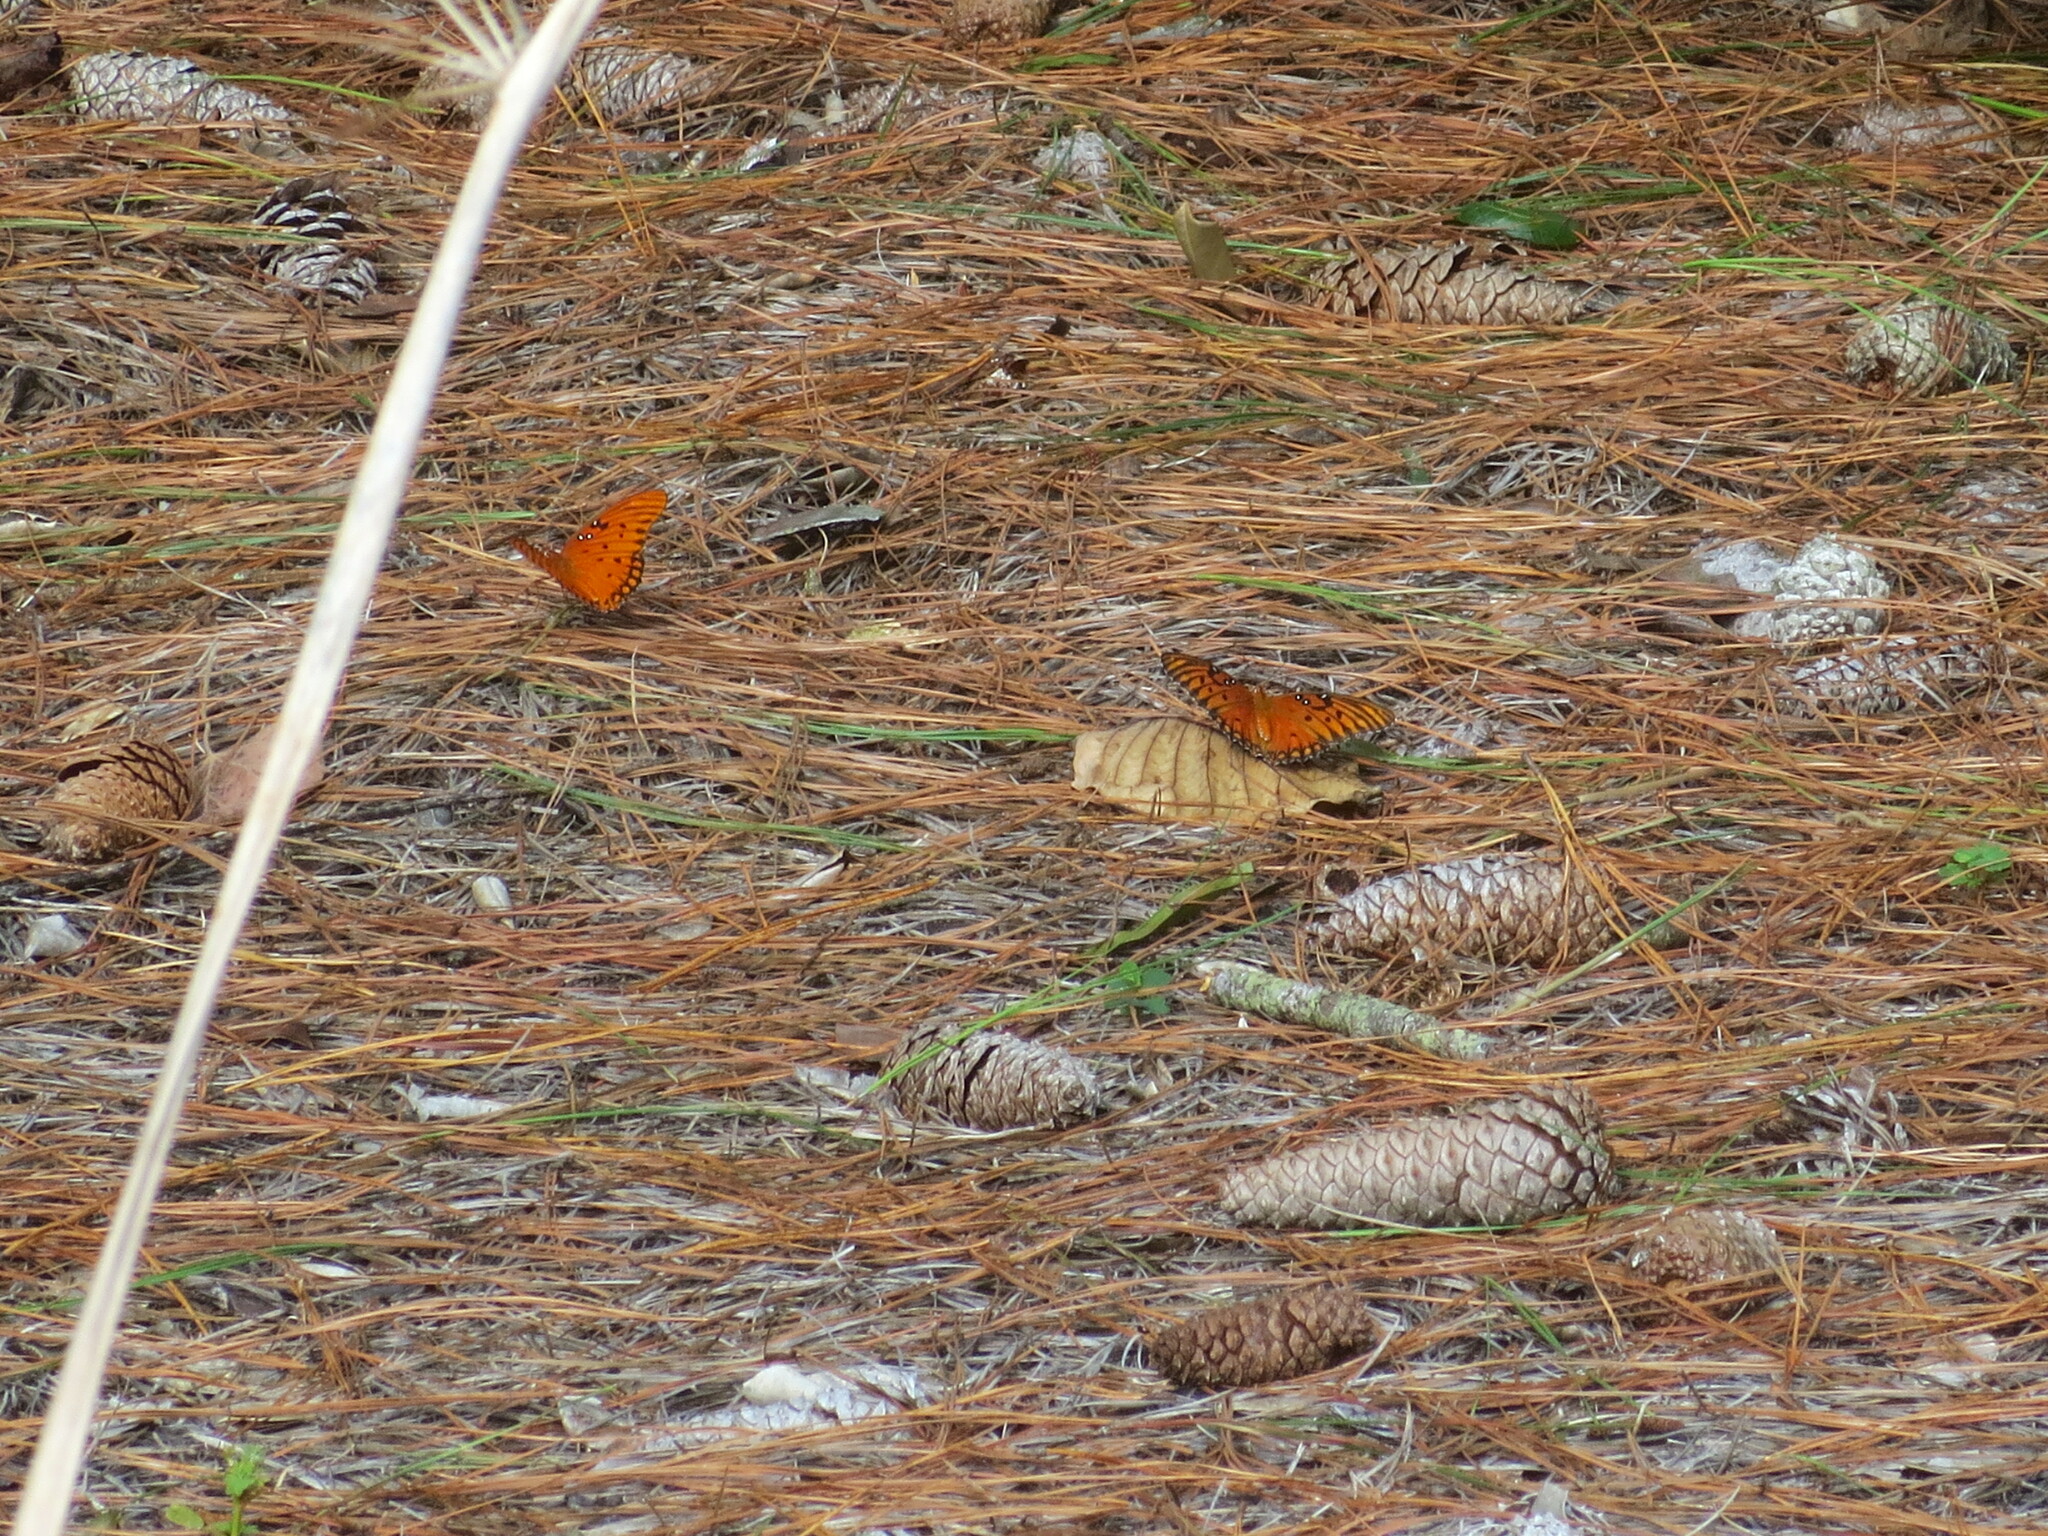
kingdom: Animalia
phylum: Arthropoda
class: Insecta
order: Lepidoptera
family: Nymphalidae
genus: Dione
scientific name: Dione vanillae
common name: Gulf fritillary
